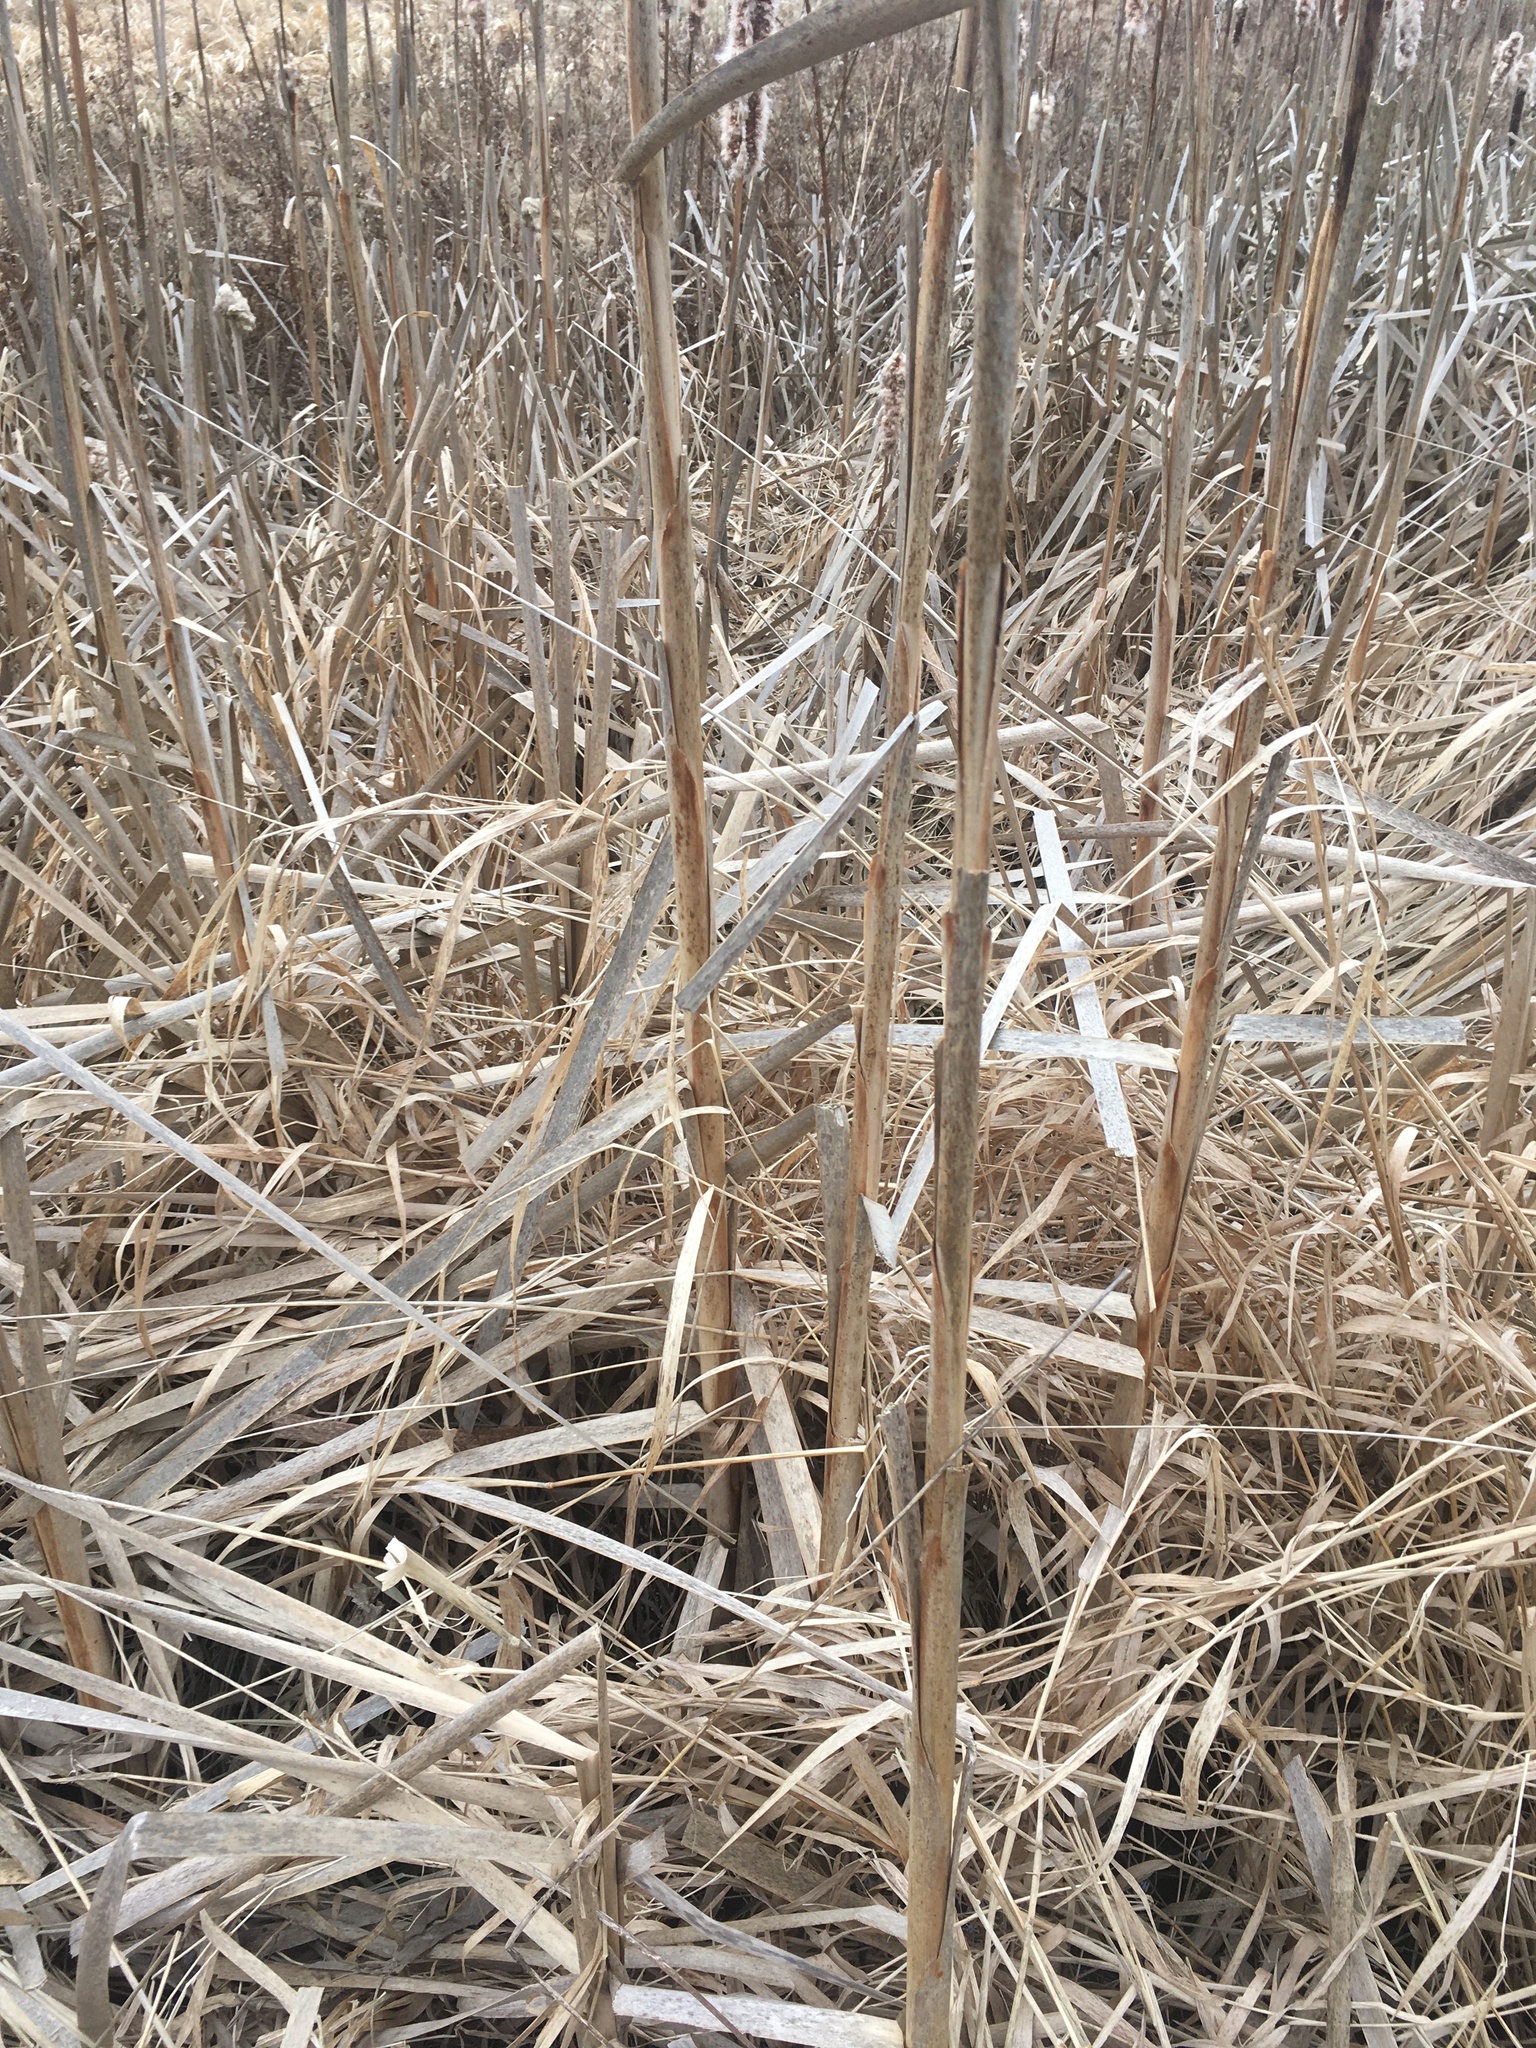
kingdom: Plantae
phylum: Tracheophyta
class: Liliopsida
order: Poales
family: Typhaceae
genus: Typha
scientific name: Typha
